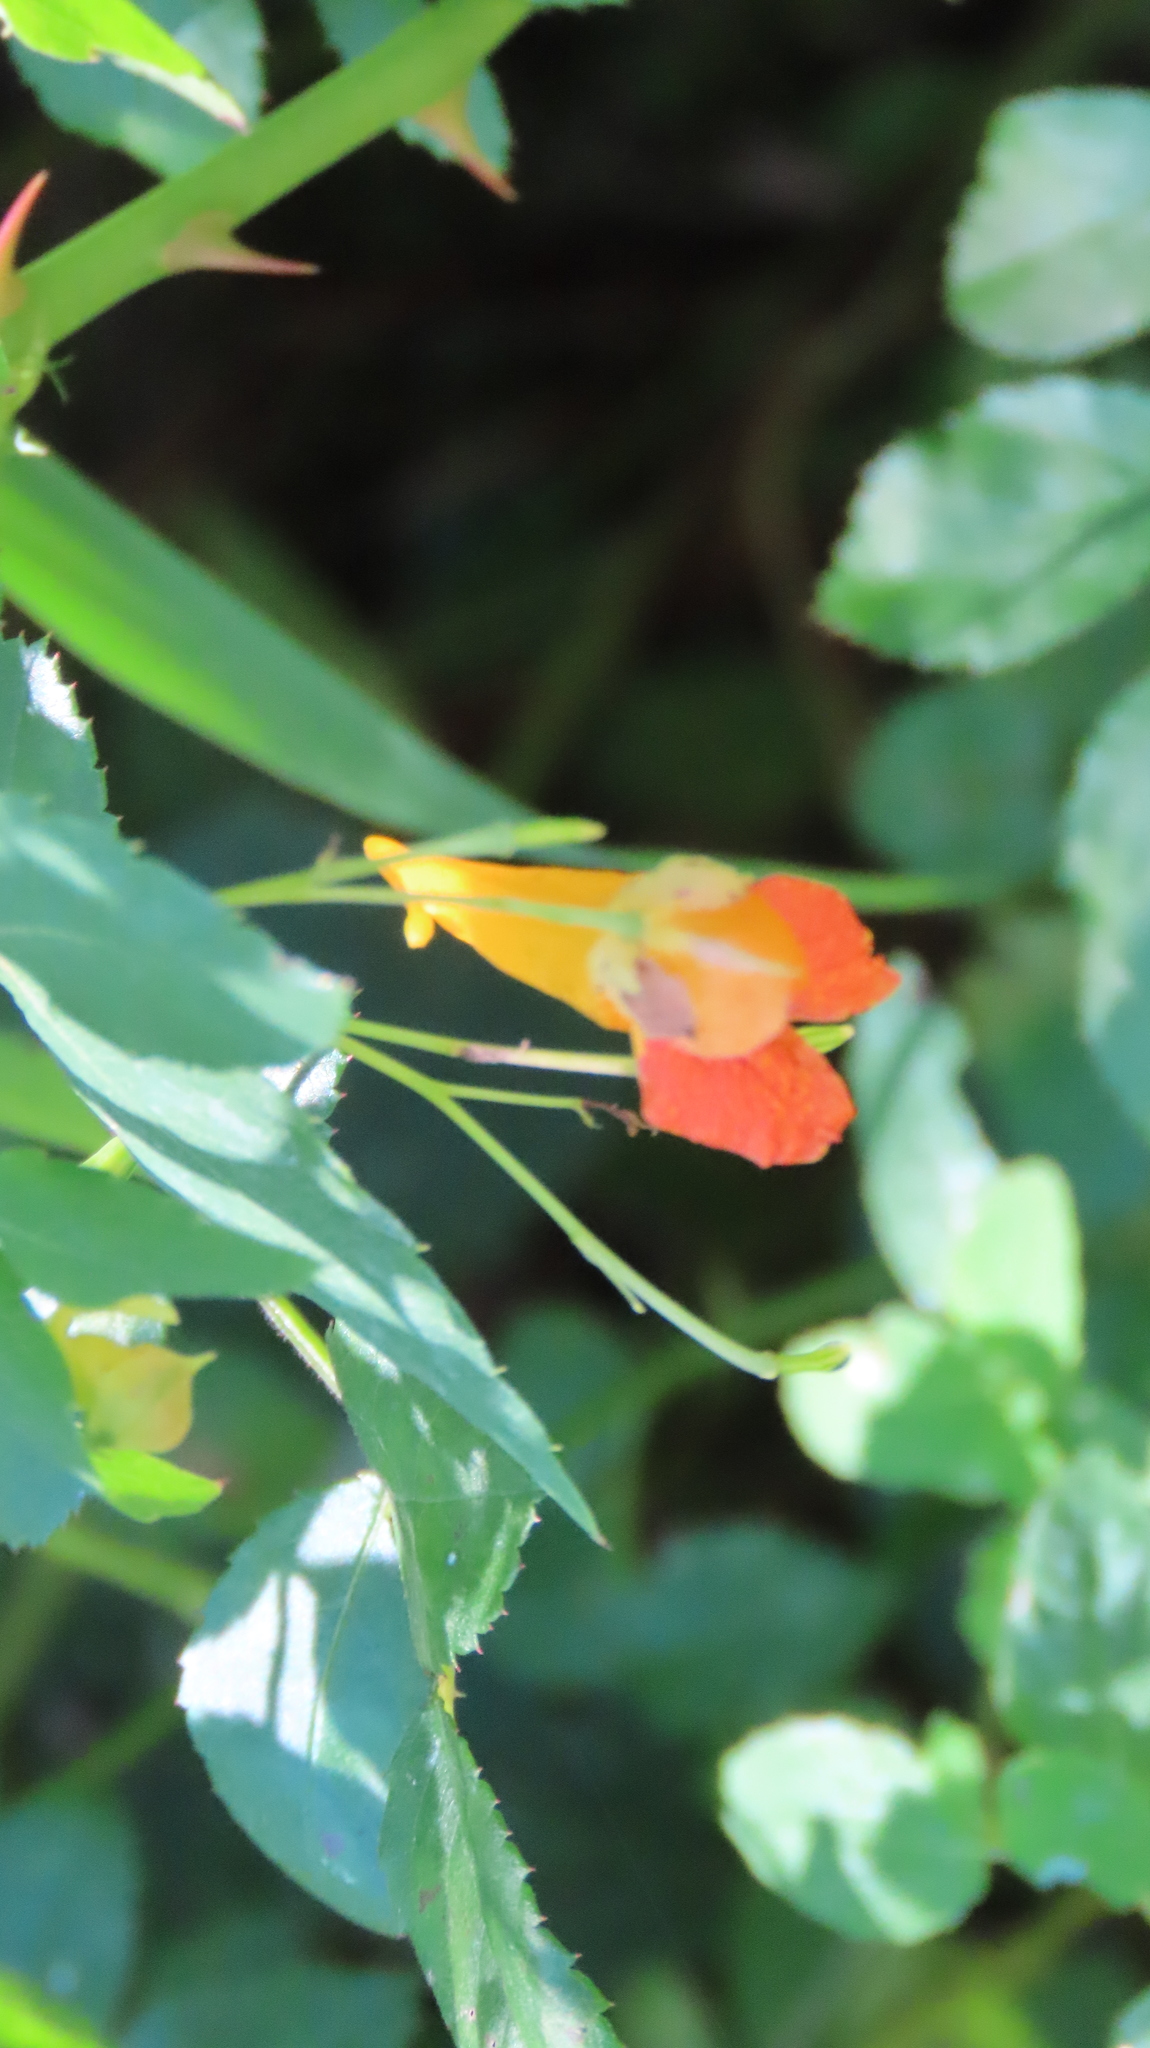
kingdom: Plantae
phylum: Tracheophyta
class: Magnoliopsida
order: Ericales
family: Balsaminaceae
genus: Impatiens
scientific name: Impatiens capensis
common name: Orange balsam
